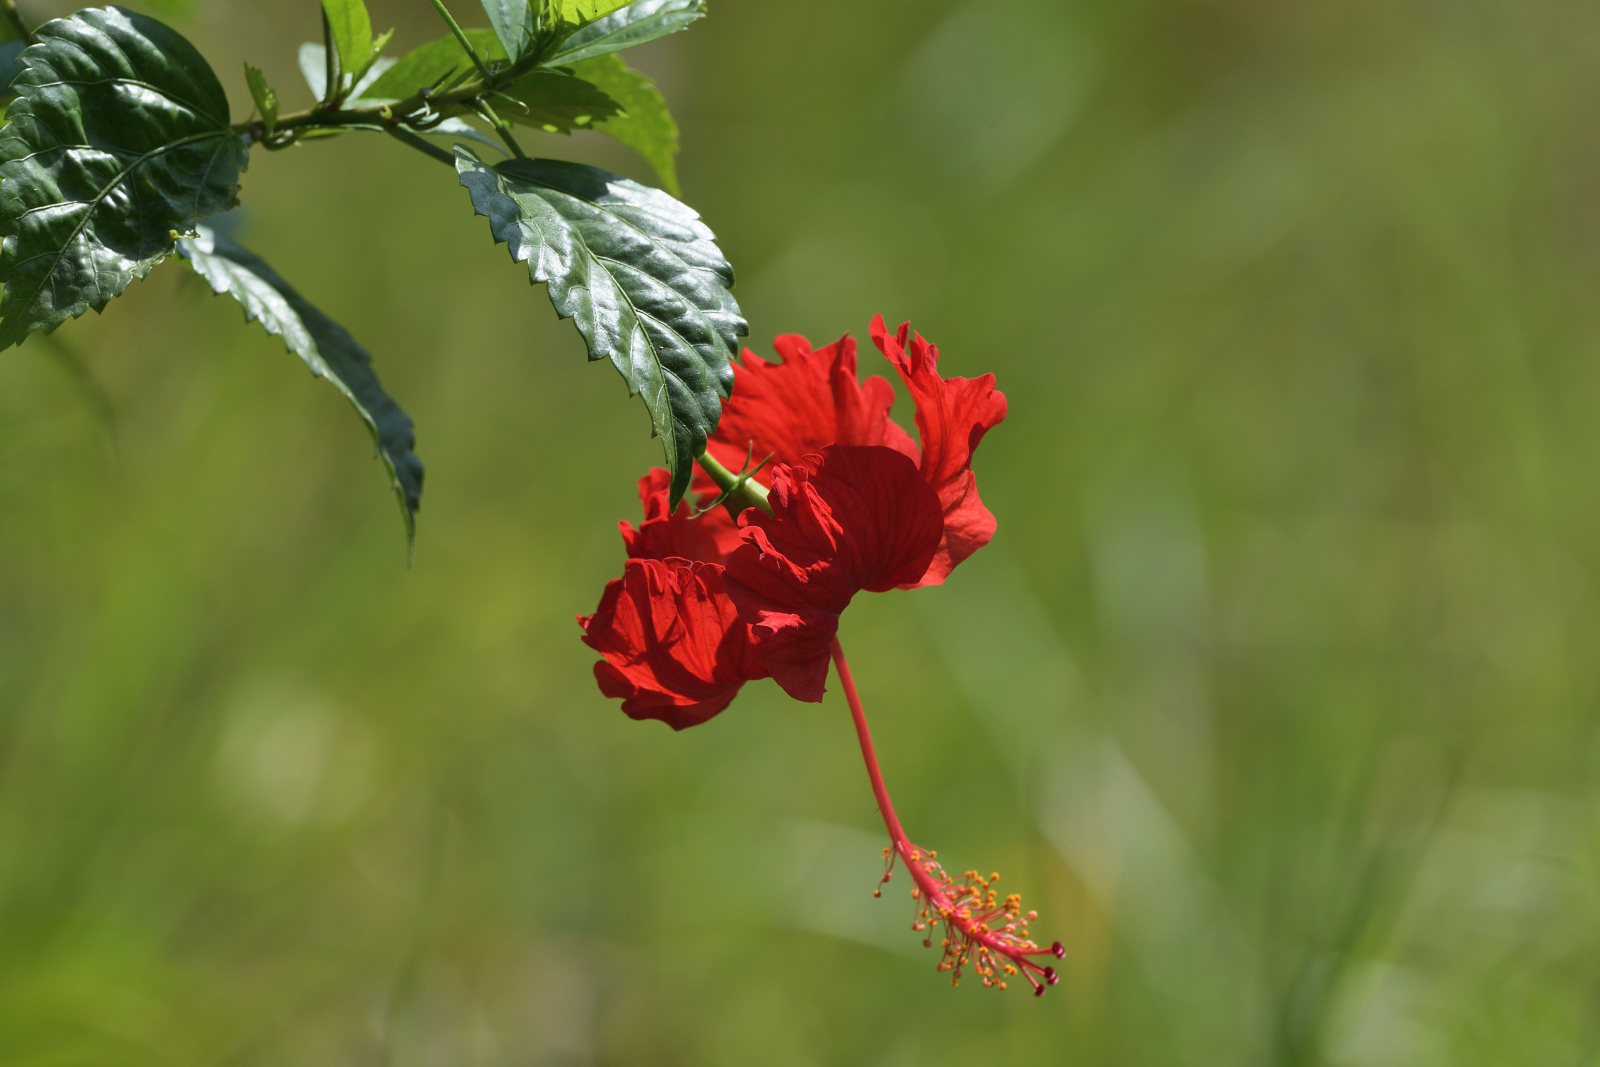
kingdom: Plantae
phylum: Tracheophyta
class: Magnoliopsida
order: Malvales
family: Malvaceae
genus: Hibiscus
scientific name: Hibiscus archeri
